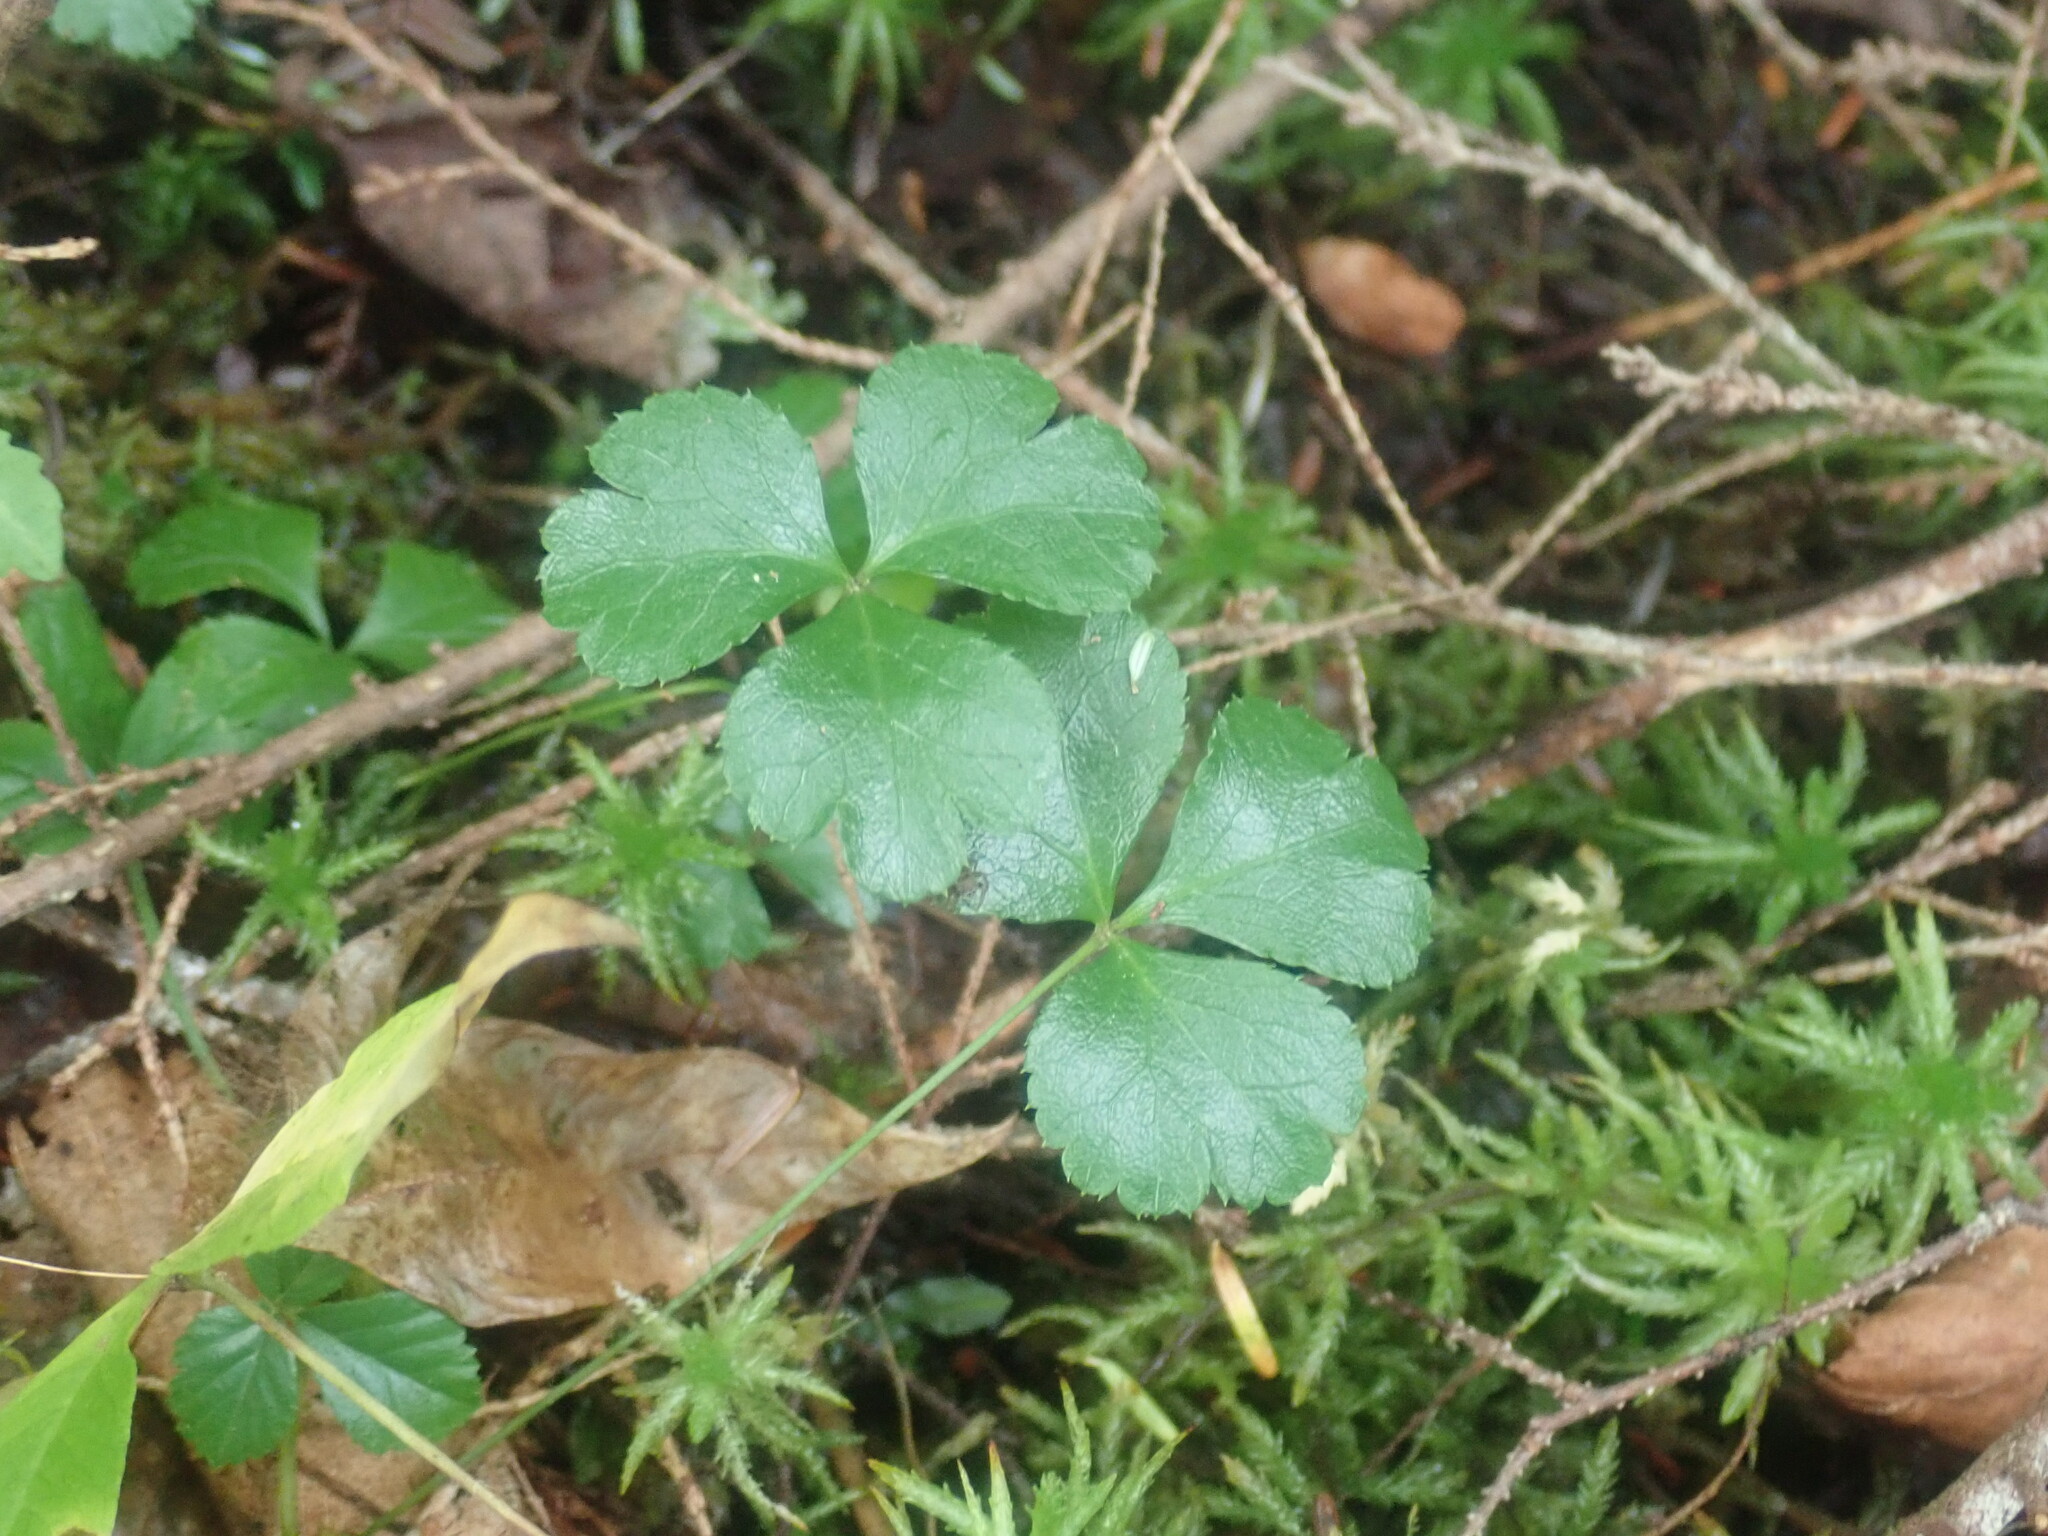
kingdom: Plantae
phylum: Tracheophyta
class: Magnoliopsida
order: Ranunculales
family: Ranunculaceae
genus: Coptis
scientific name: Coptis trifolia
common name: Canker-root
